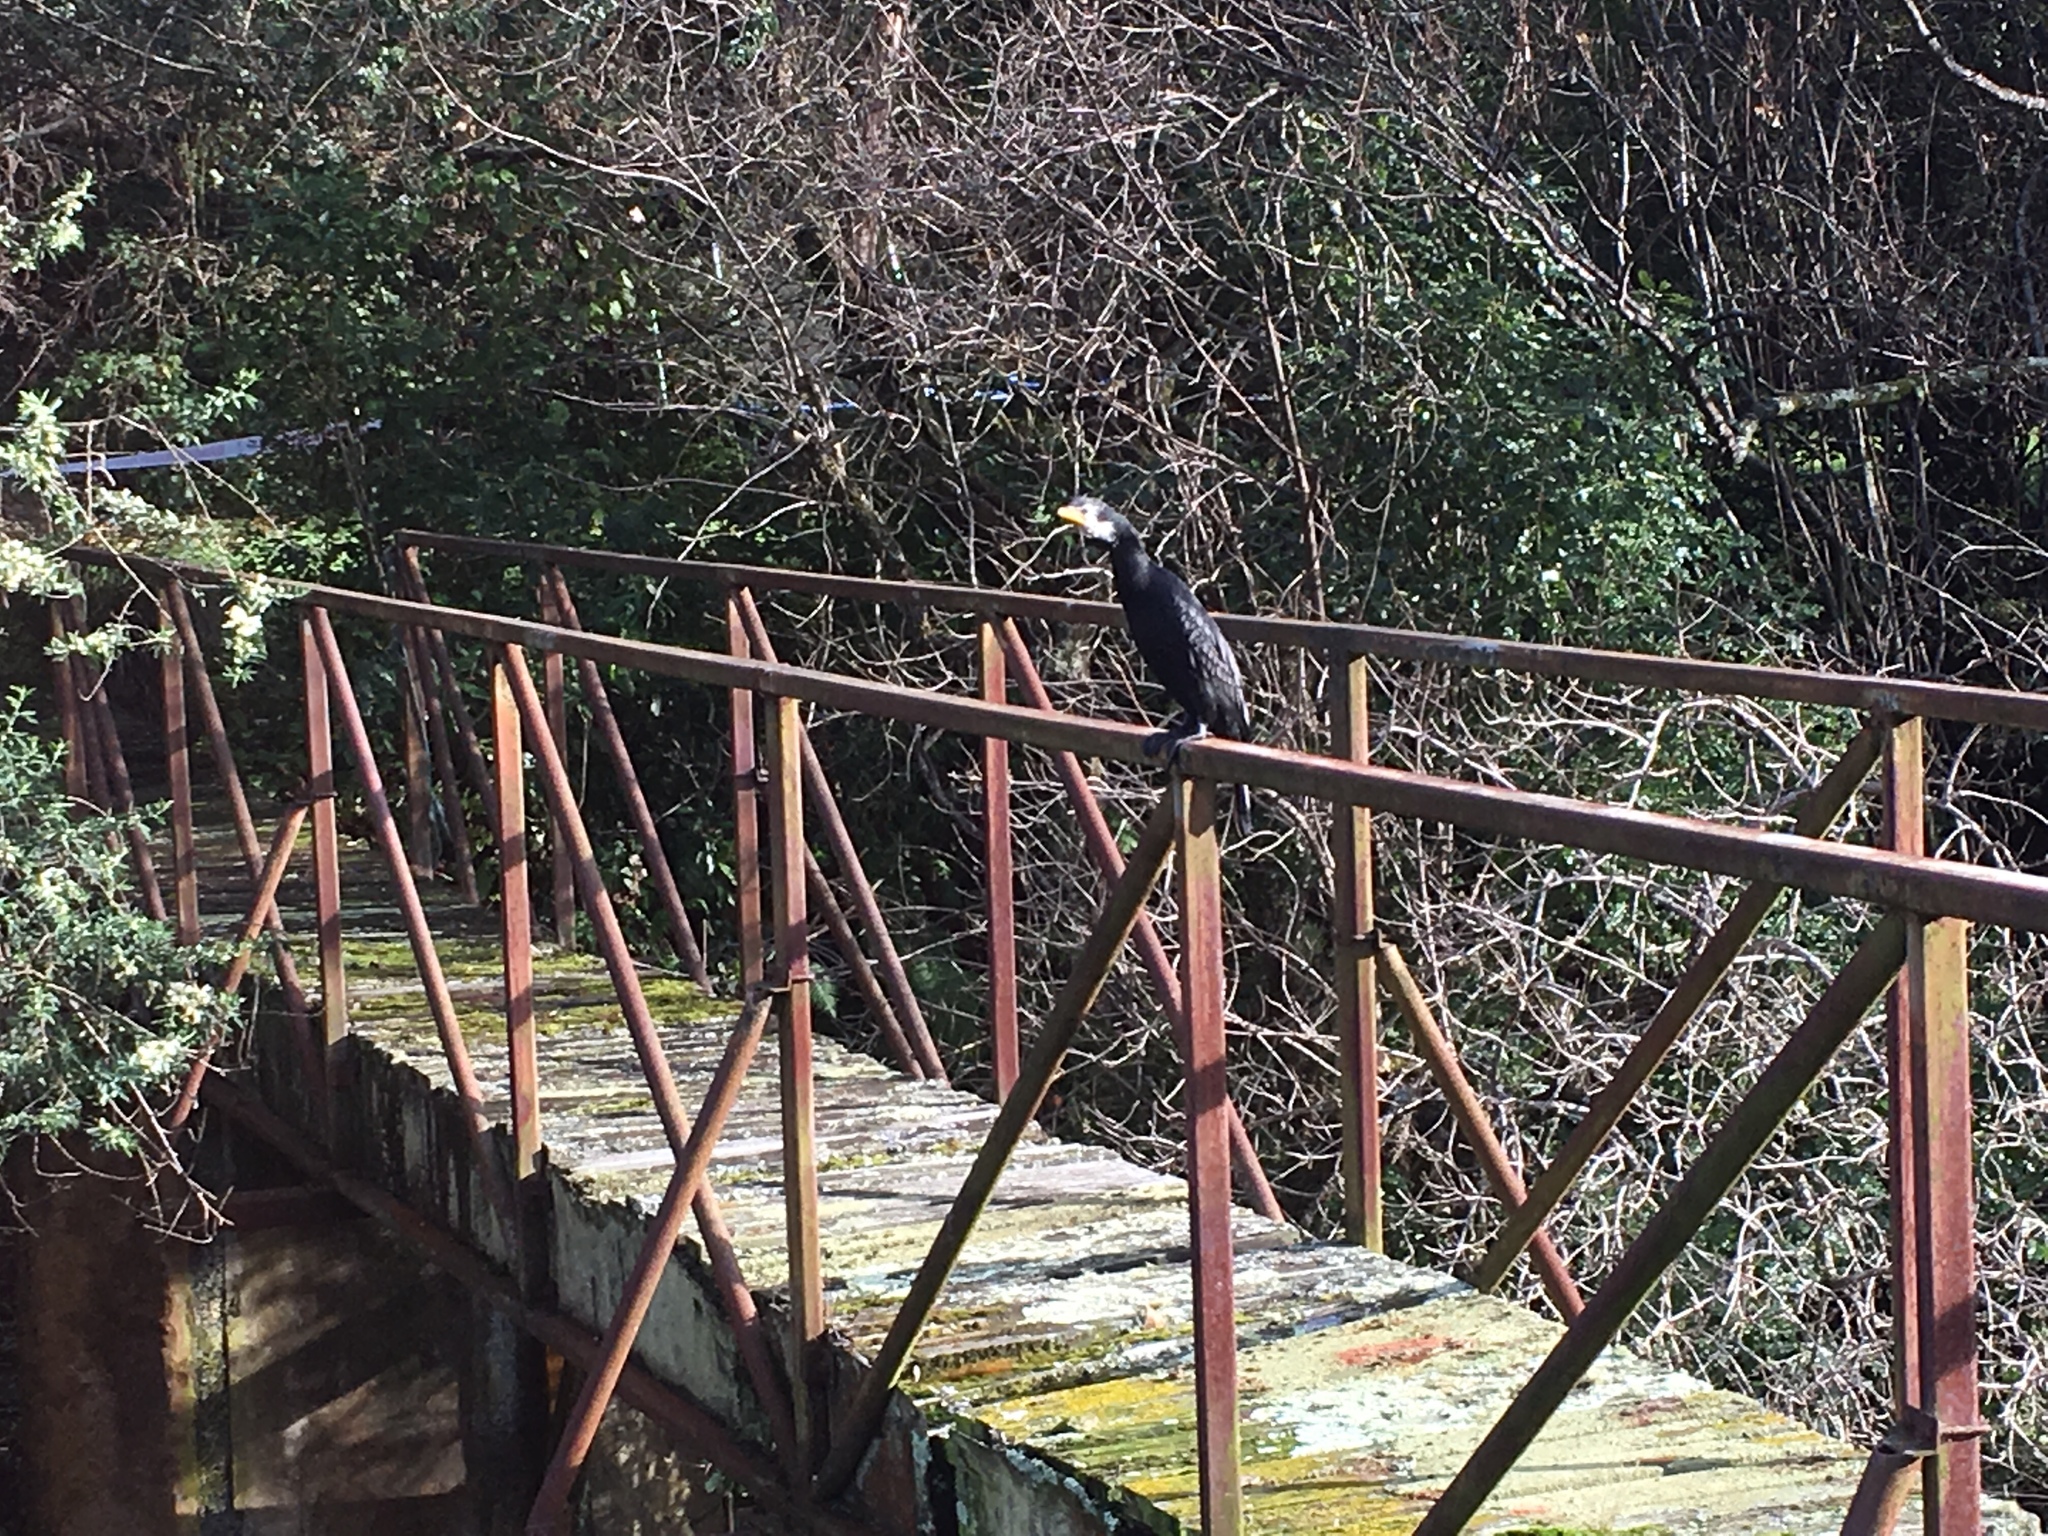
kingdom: Animalia
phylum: Chordata
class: Aves
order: Suliformes
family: Phalacrocoracidae
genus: Microcarbo
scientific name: Microcarbo melanoleucos
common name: Little pied cormorant
